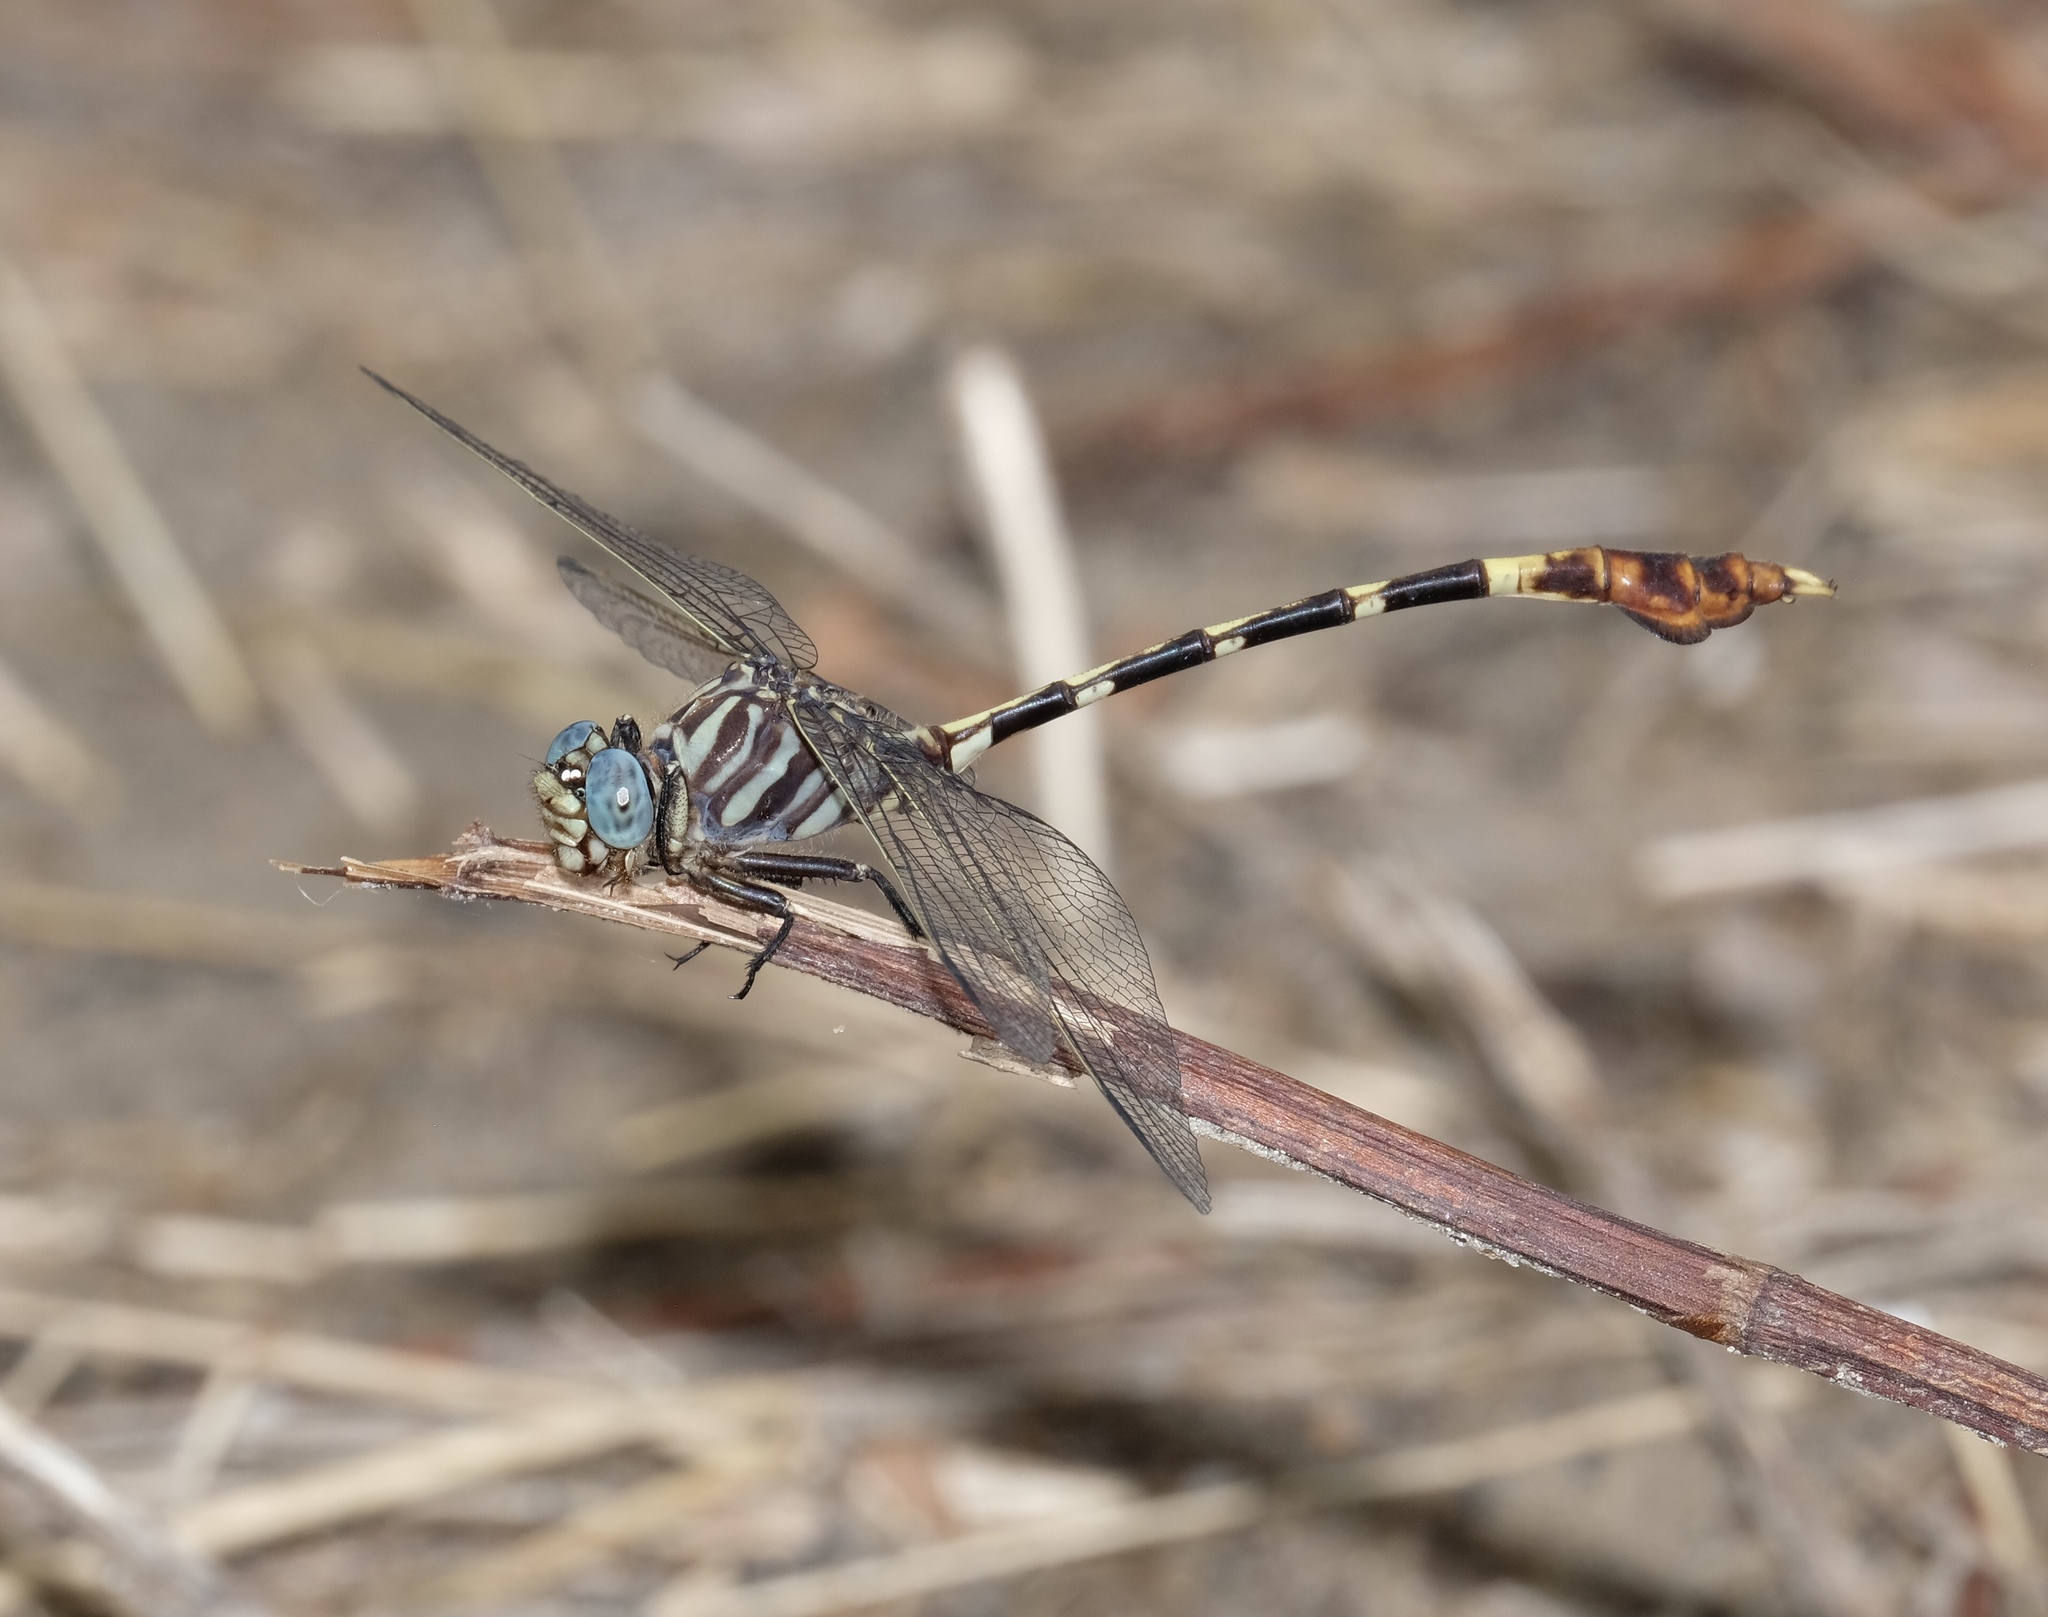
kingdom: Animalia
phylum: Arthropoda
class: Insecta
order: Odonata
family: Gomphidae
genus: Phyllogomphoides
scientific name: Phyllogomphoides albrighti
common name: Five-striped leaftail
